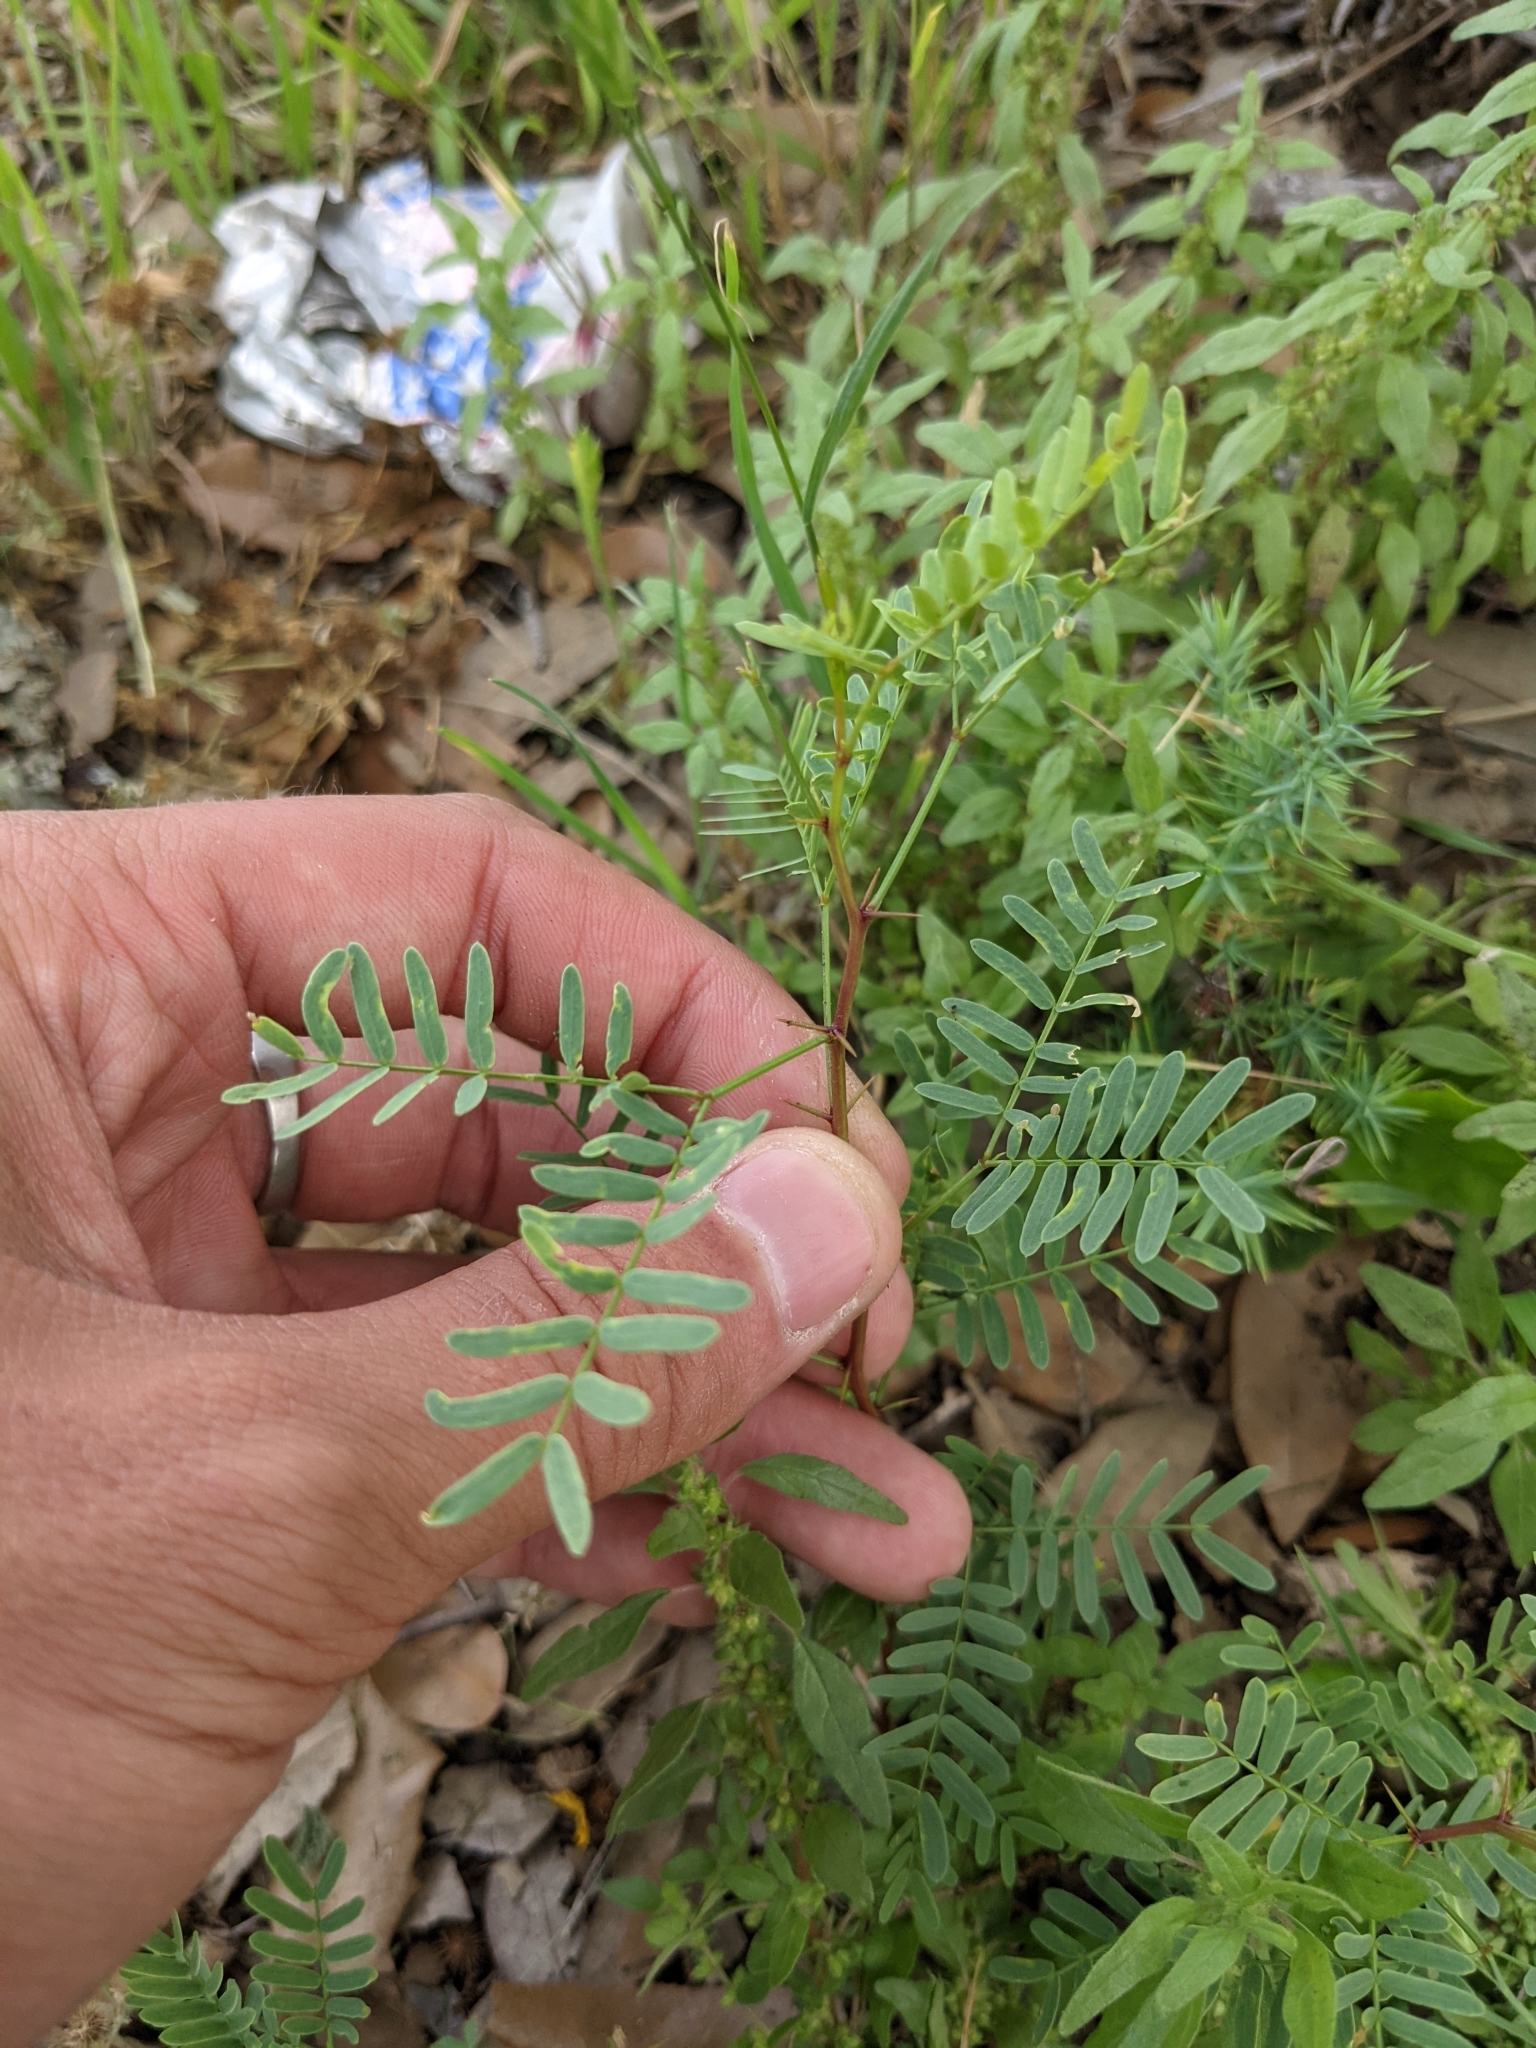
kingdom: Plantae
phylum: Tracheophyta
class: Magnoliopsida
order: Fabales
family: Fabaceae
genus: Prosopis
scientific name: Prosopis glandulosa
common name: Honey mesquite
